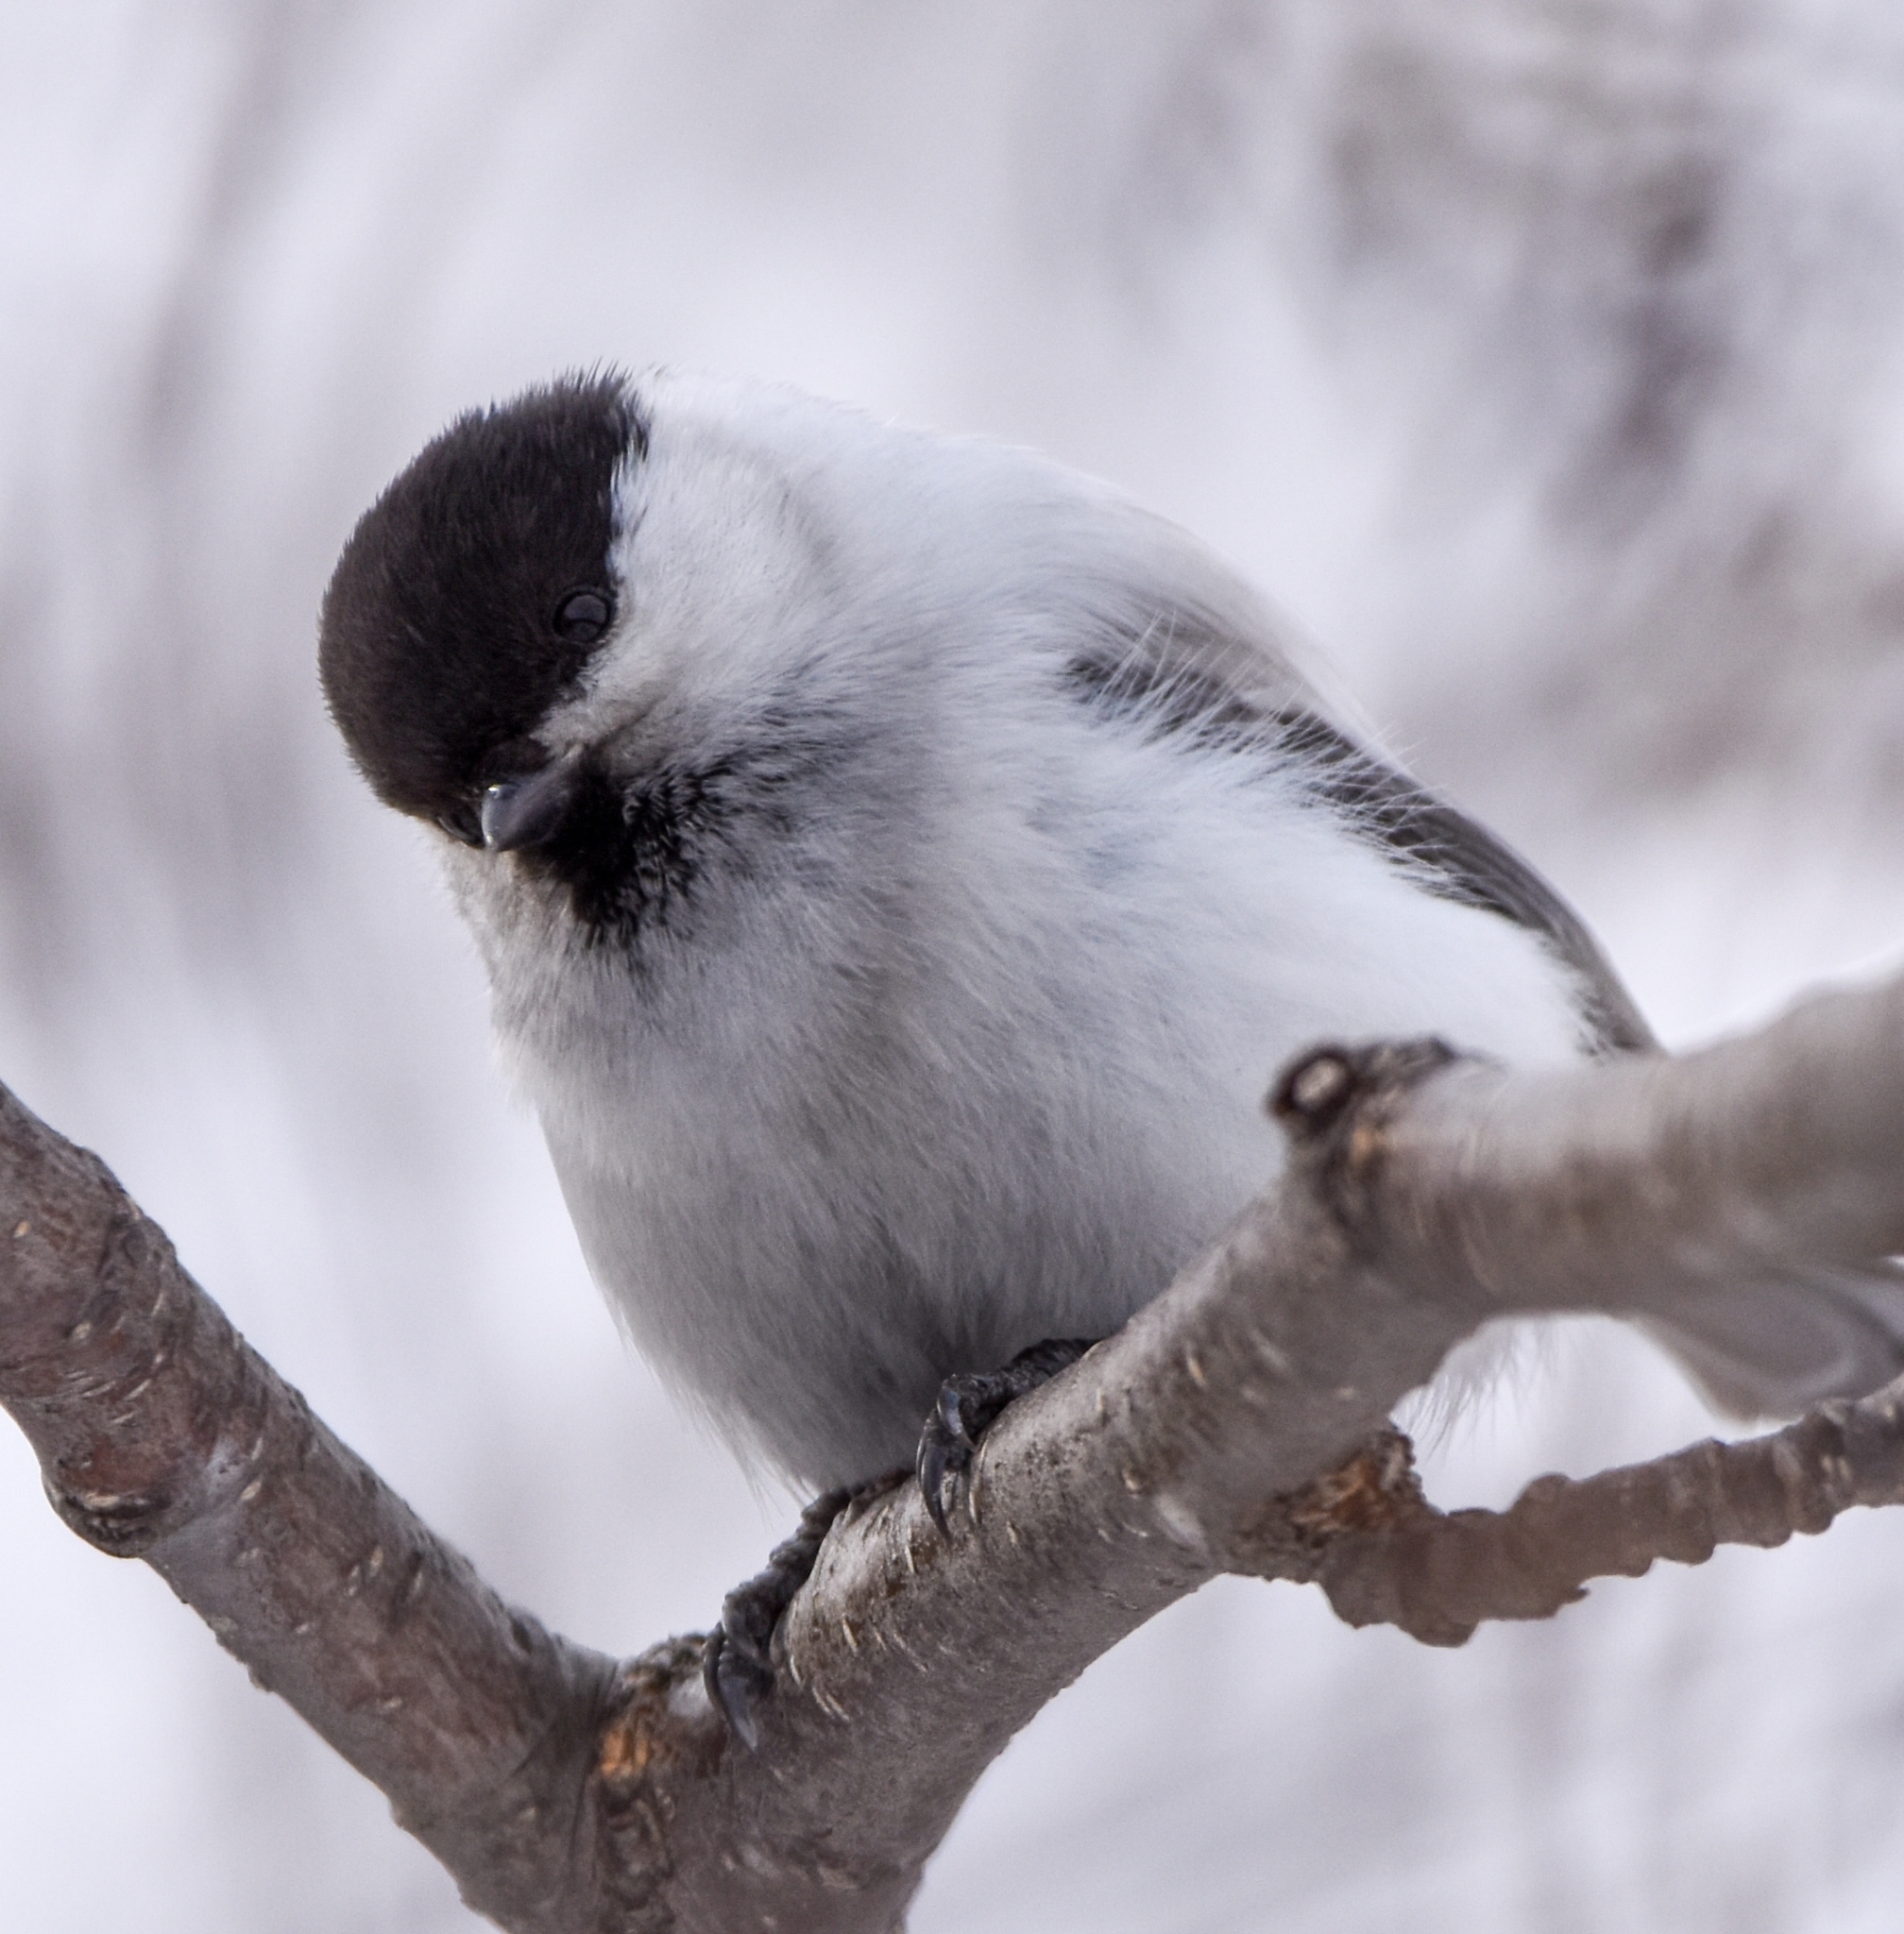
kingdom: Animalia
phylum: Chordata
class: Aves
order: Passeriformes
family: Paridae
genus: Poecile
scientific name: Poecile montanus
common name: Willow tit
